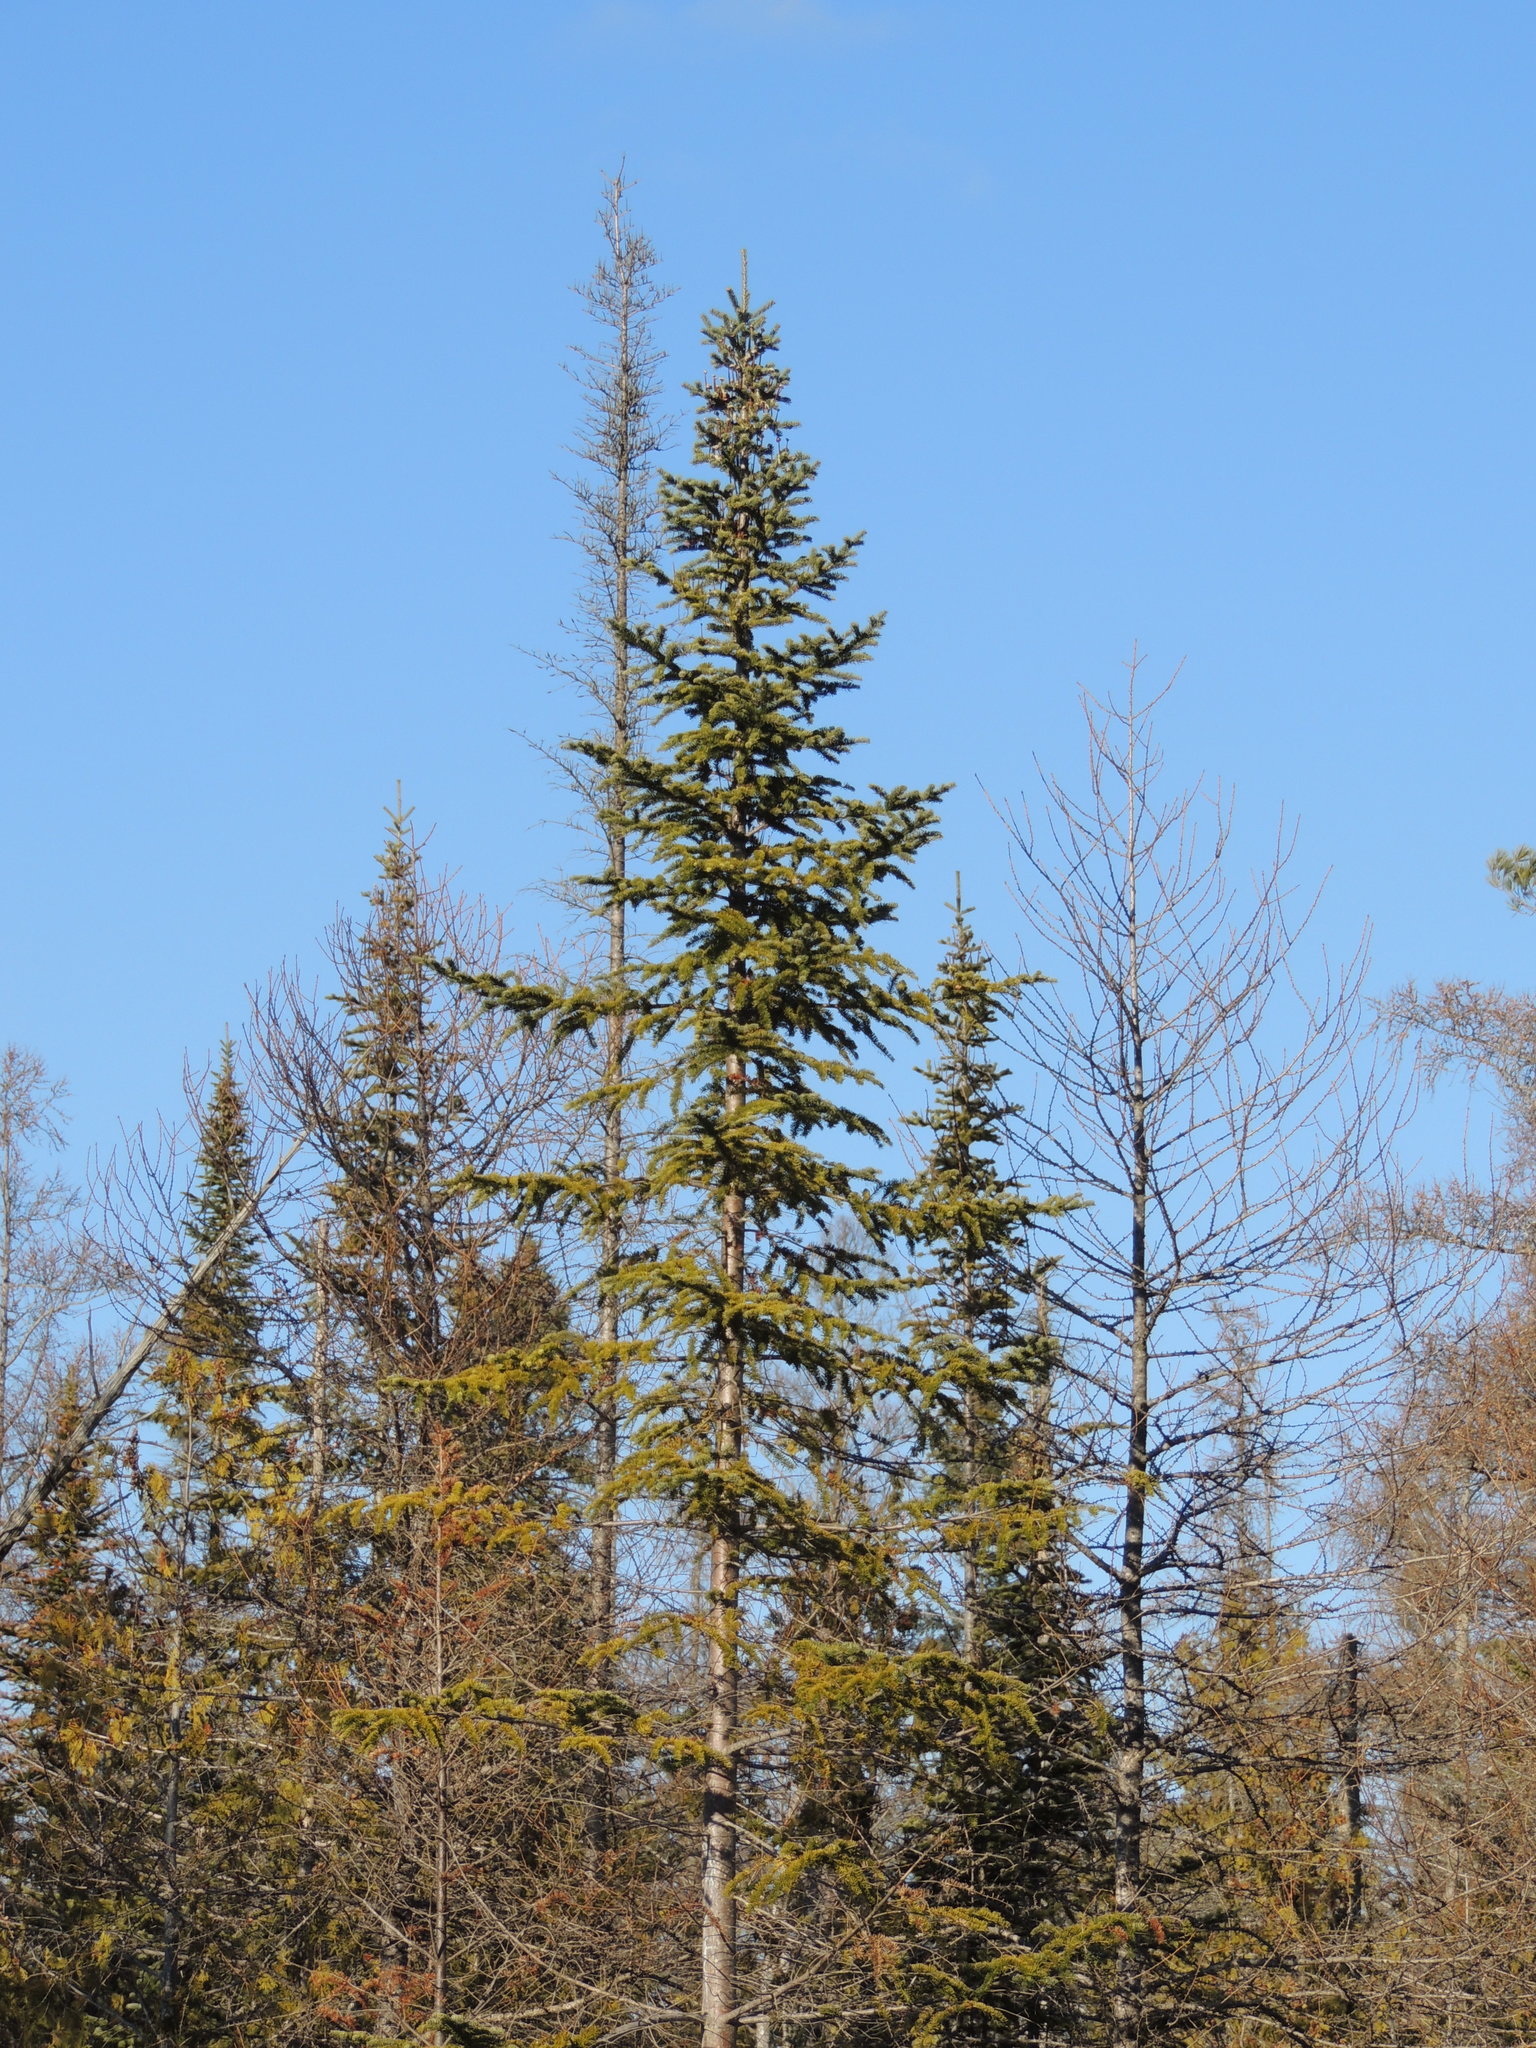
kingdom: Plantae
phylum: Tracheophyta
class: Pinopsida
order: Pinales
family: Pinaceae
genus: Abies
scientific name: Abies balsamea
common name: Balsam fir
